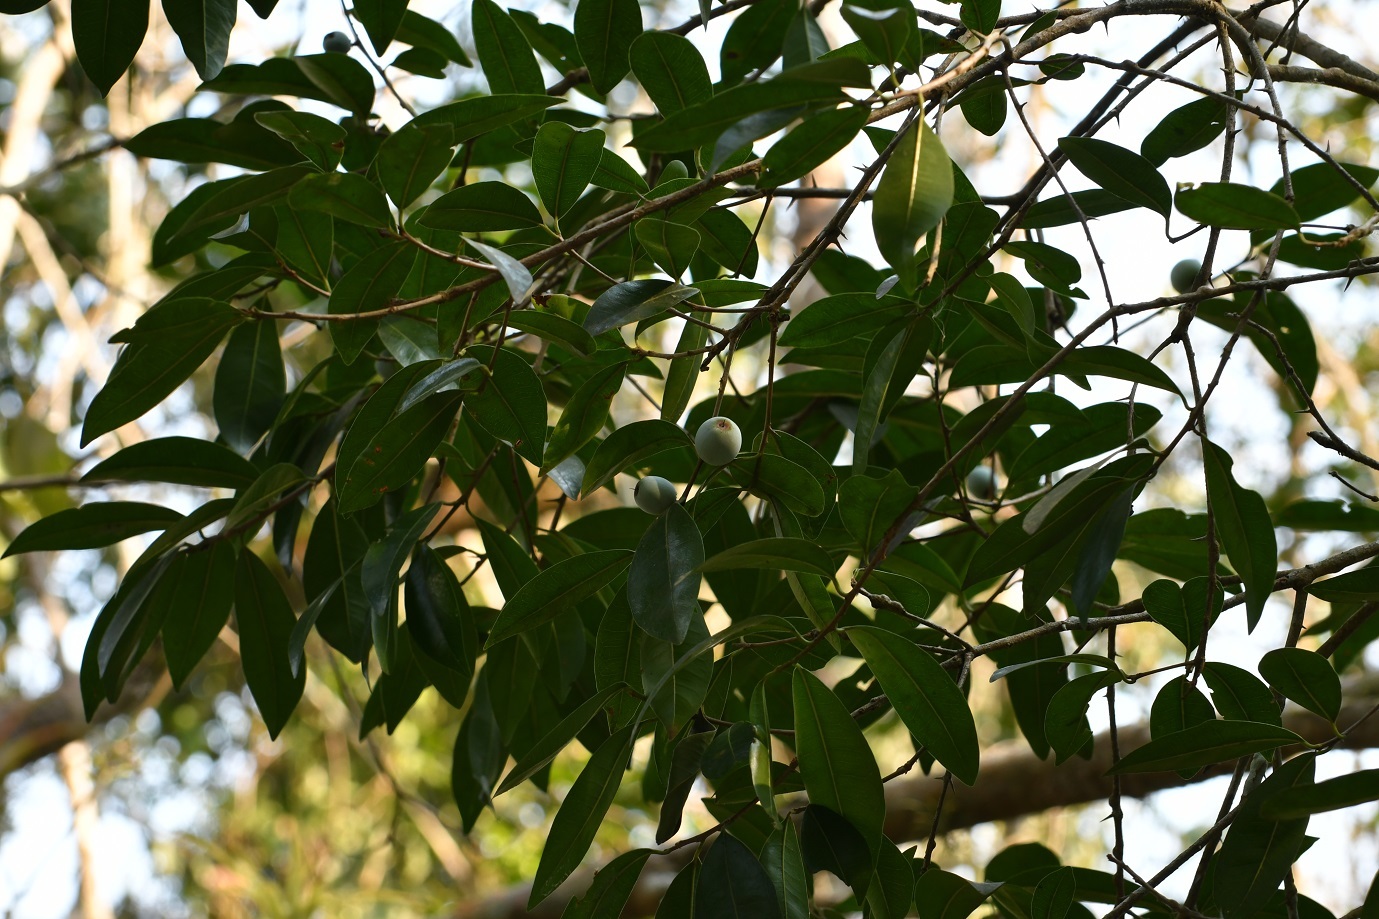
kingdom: Plantae
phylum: Tracheophyta
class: Magnoliopsida
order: Ericales
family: Sapotaceae
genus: Sideroxylon
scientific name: Sideroxylon persimile
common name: Bumelia
